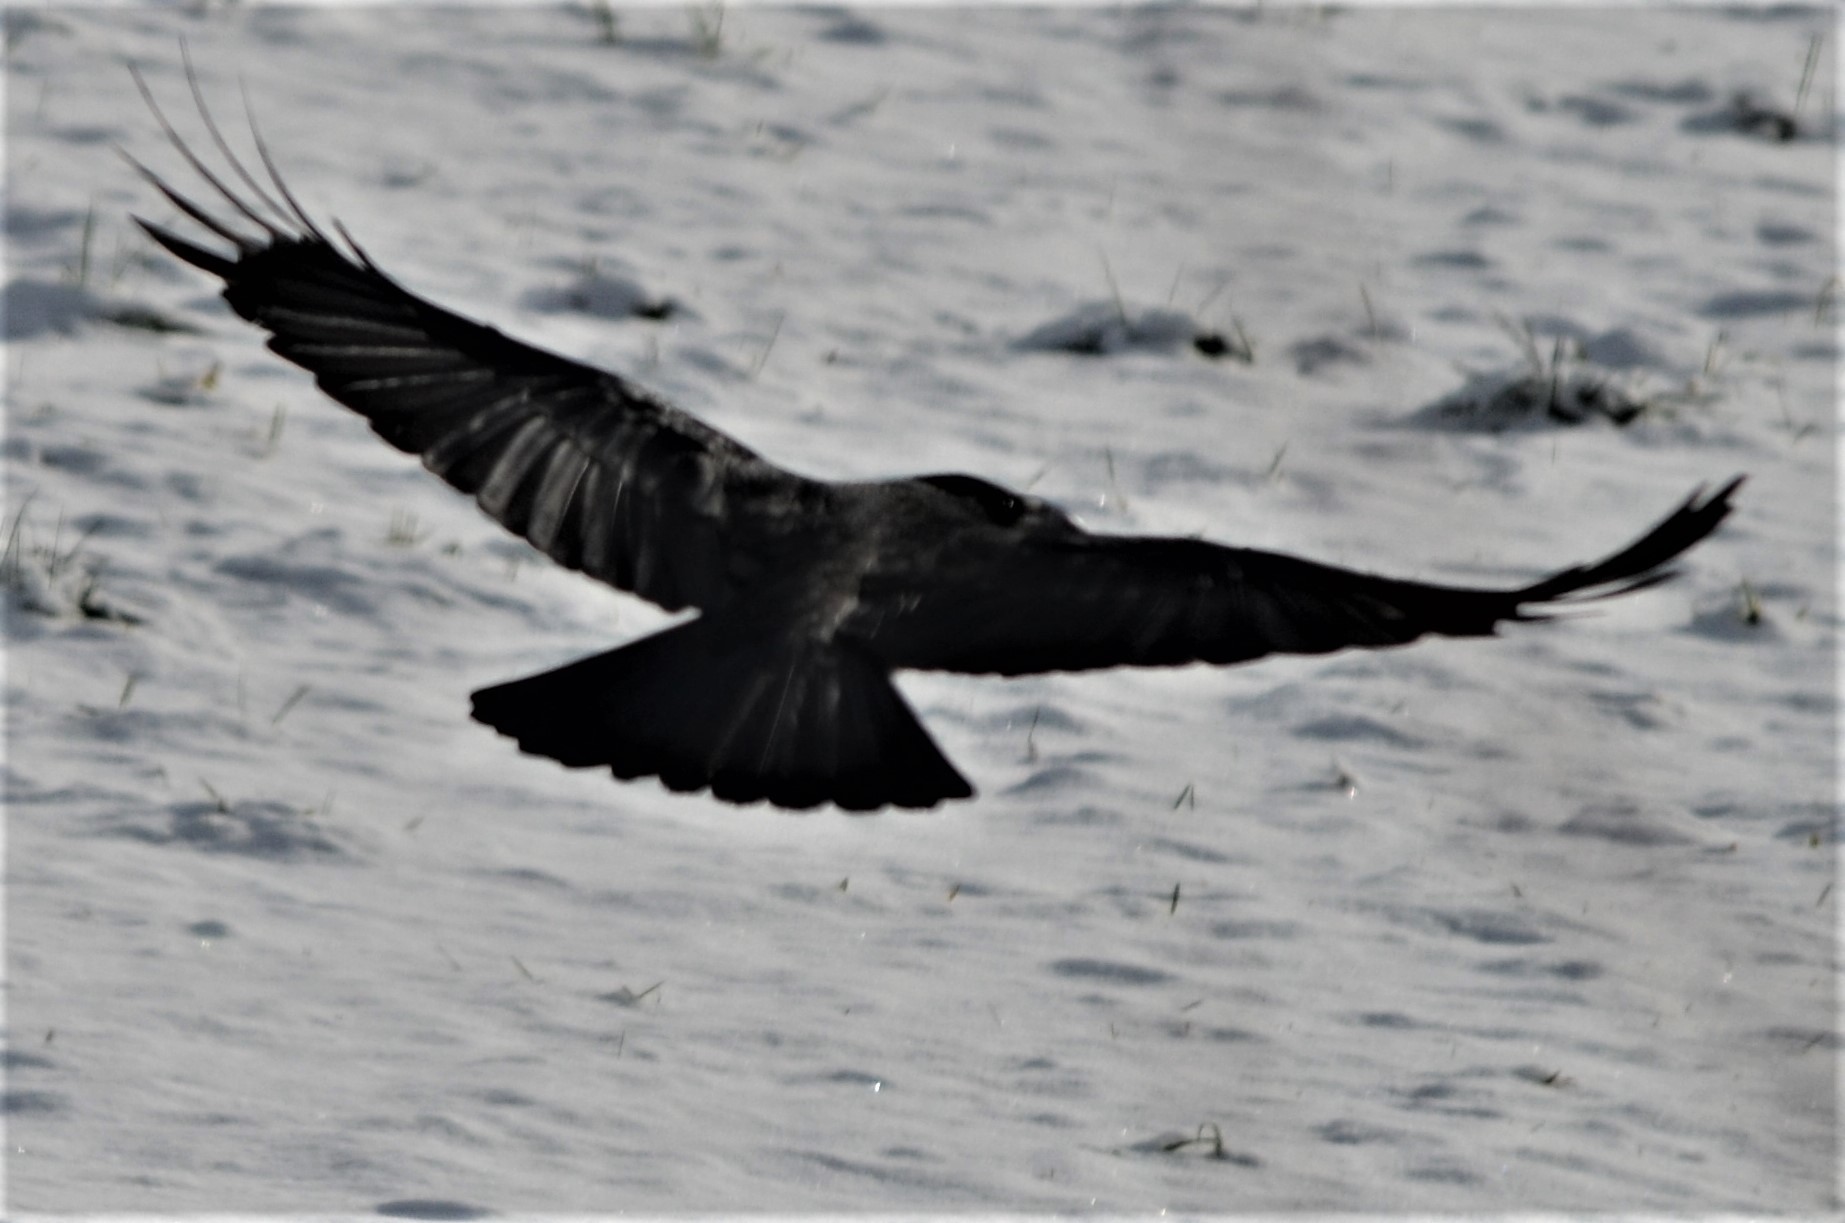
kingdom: Animalia
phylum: Chordata
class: Aves
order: Passeriformes
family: Corvidae
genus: Corvus
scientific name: Corvus
